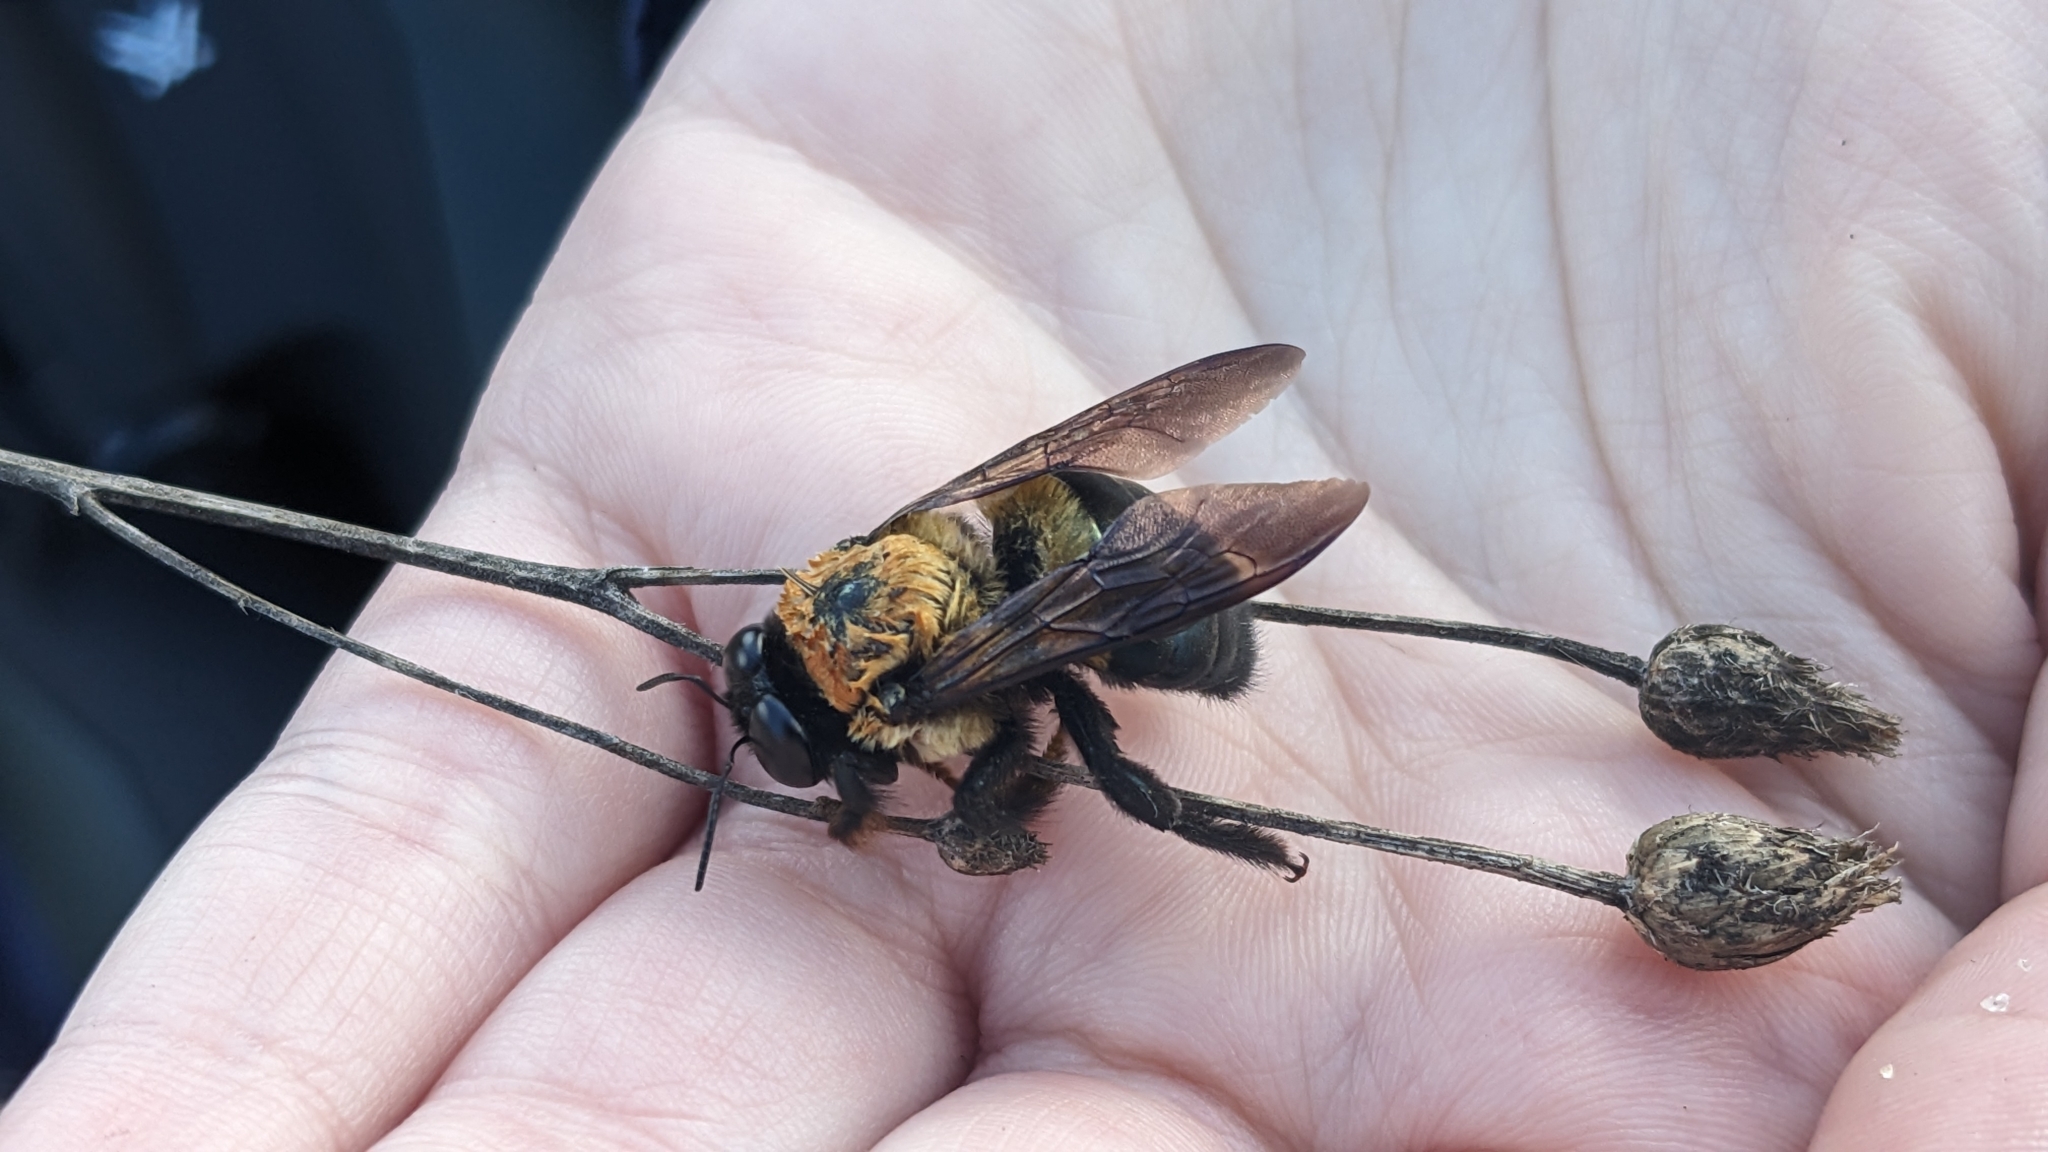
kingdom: Animalia
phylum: Arthropoda
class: Insecta
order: Hymenoptera
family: Apidae
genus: Xylocopa
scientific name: Xylocopa virginica
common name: Carpenter bee
